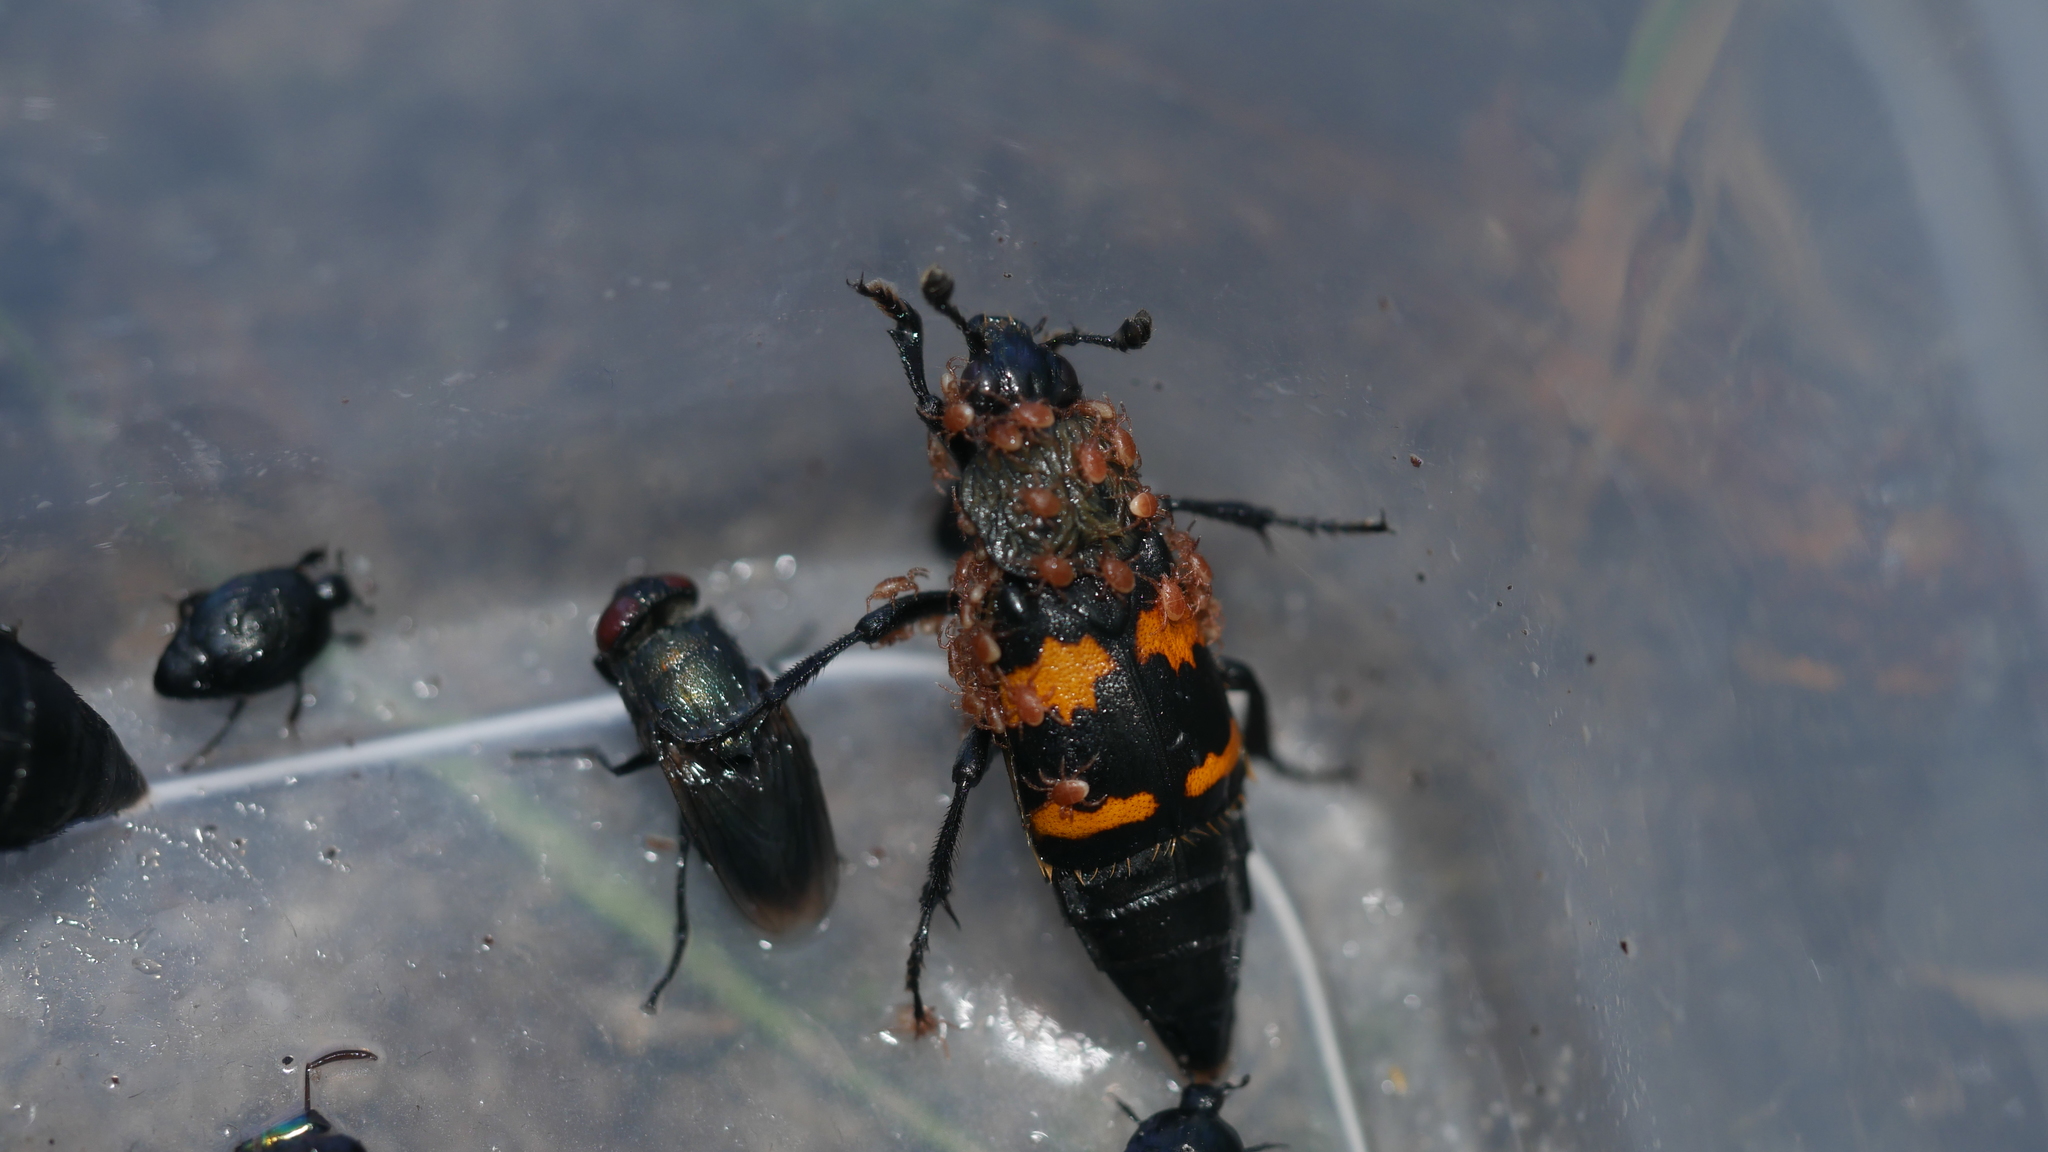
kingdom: Animalia
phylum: Arthropoda
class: Insecta
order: Coleoptera
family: Staphylinidae
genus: Nicrophorus
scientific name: Nicrophorus tomentosus
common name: Tomentose burying beetle
